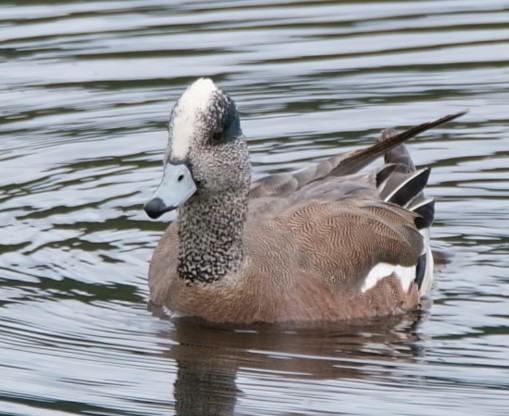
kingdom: Animalia
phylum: Chordata
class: Aves
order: Anseriformes
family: Anatidae
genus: Mareca
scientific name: Mareca americana
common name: American wigeon
